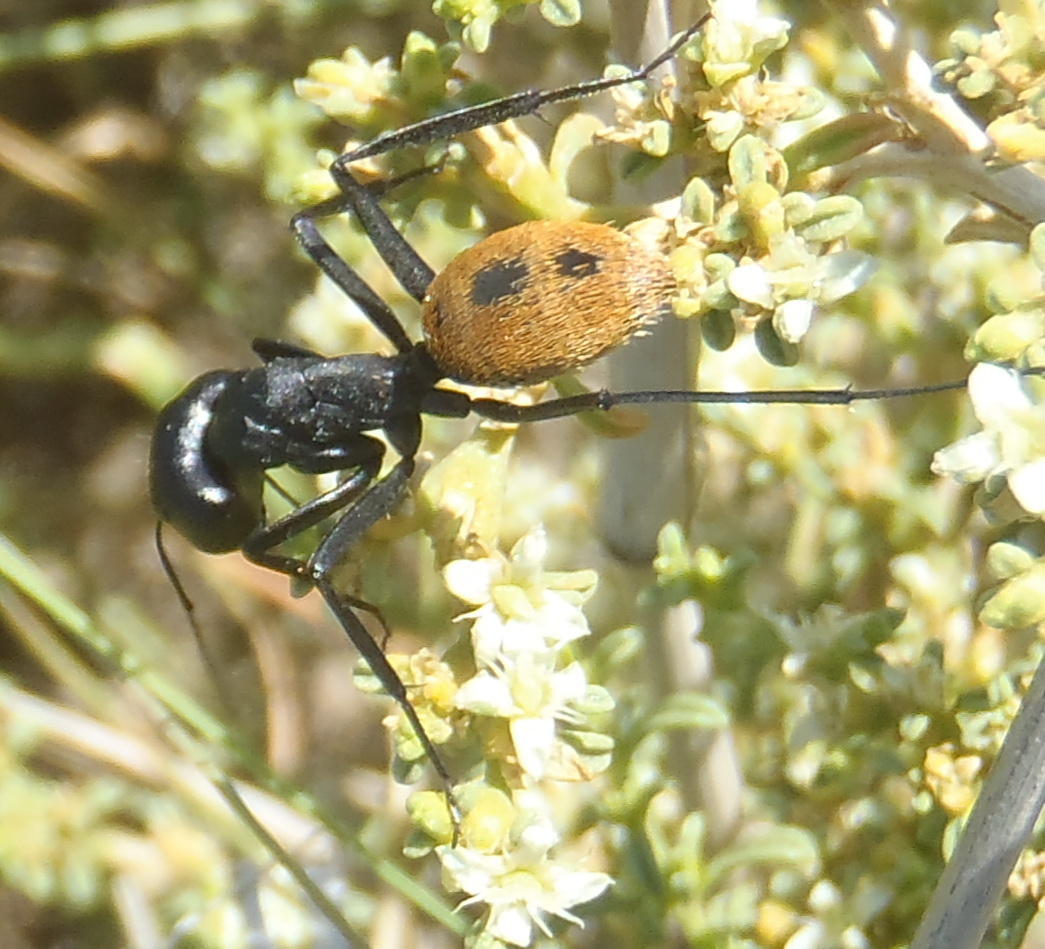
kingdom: Animalia
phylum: Arthropoda
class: Insecta
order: Hymenoptera
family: Formicidae
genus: Camponotus
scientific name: Camponotus fulvopilosus
